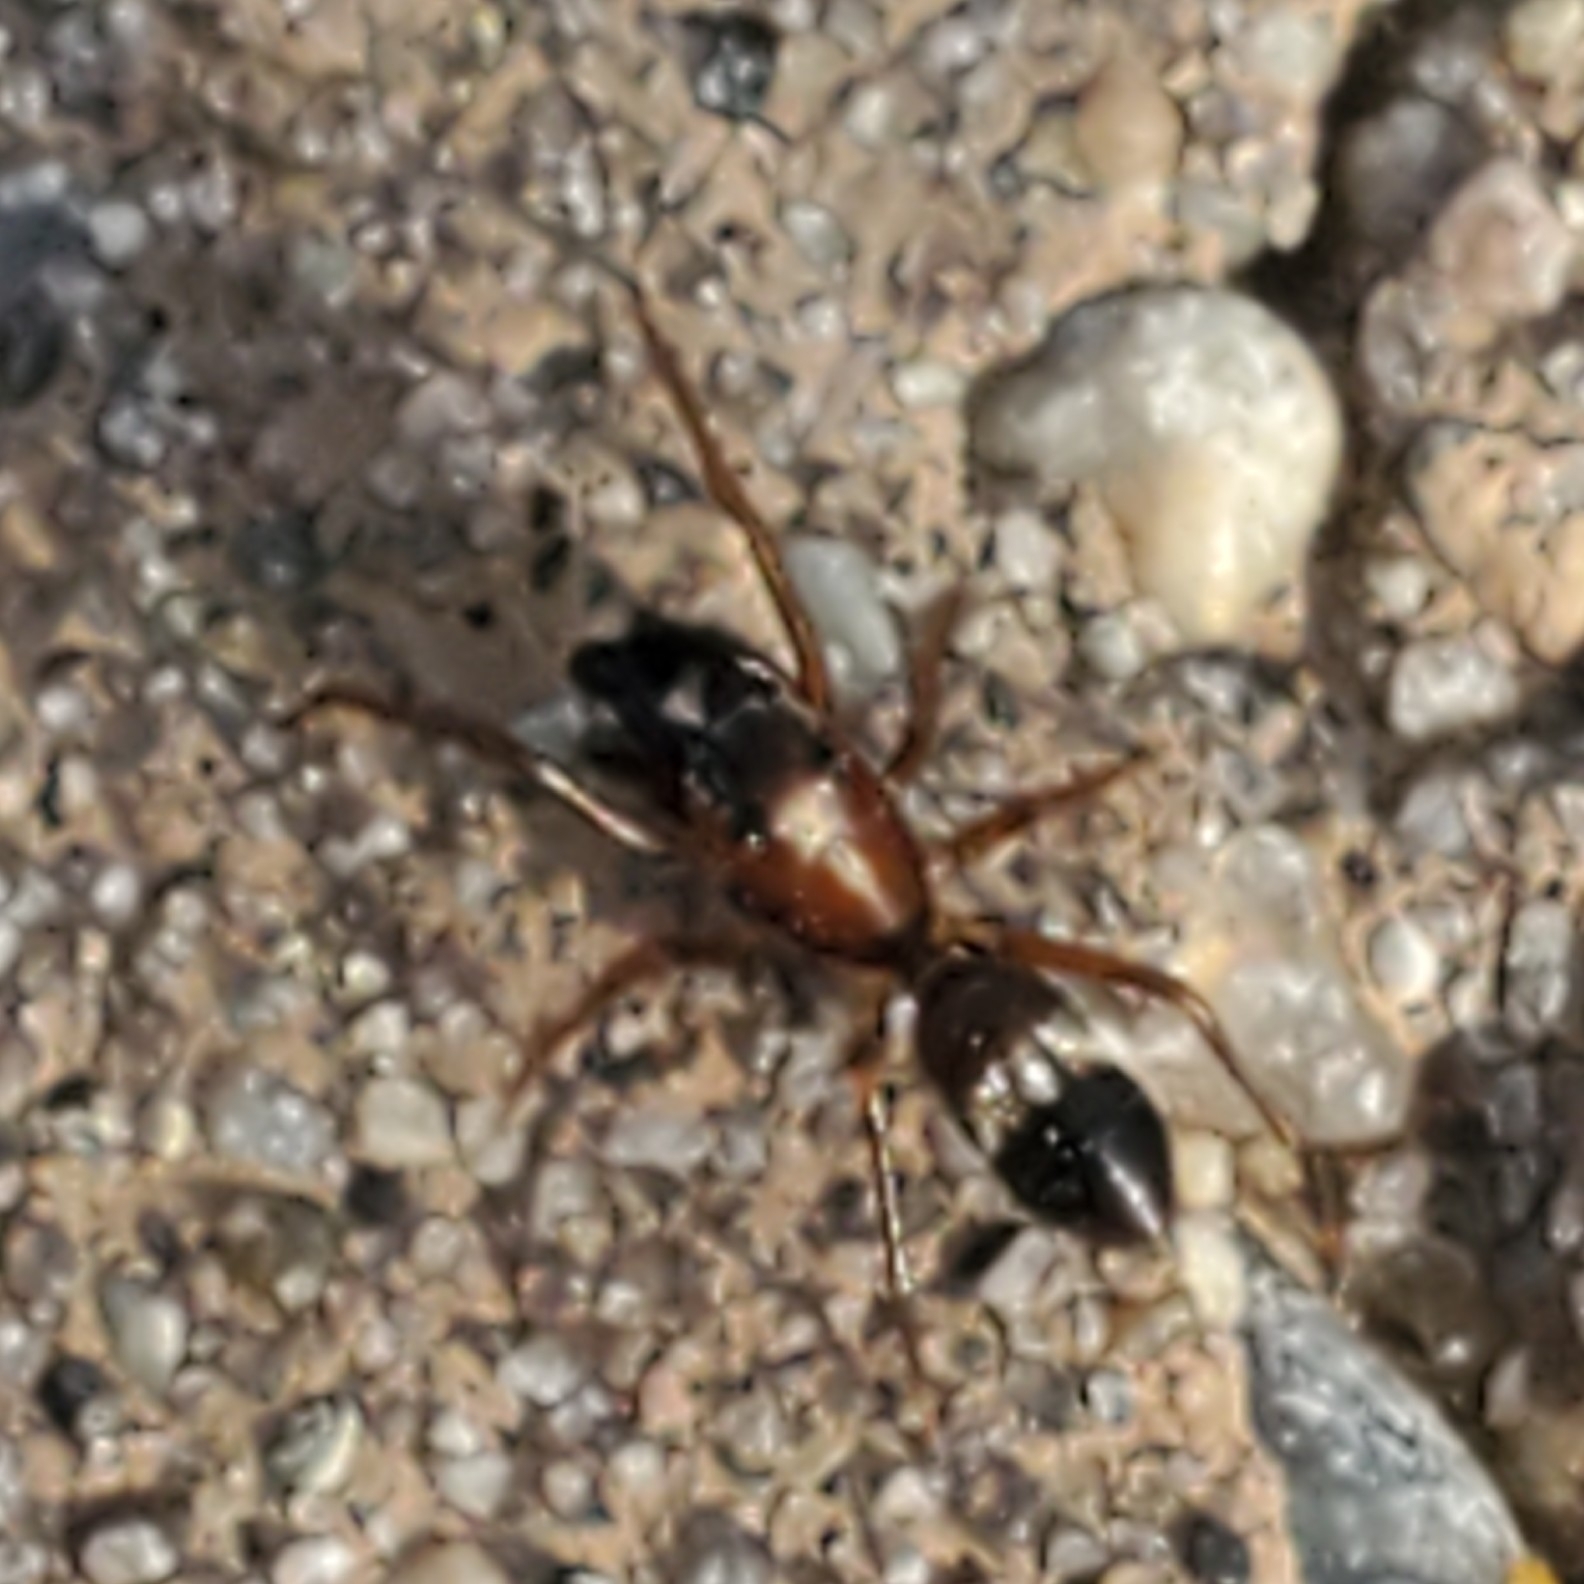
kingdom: Animalia
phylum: Arthropoda
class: Arachnida
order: Araneae
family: Salticidae
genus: Sarinda
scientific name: Sarinda hentzi
